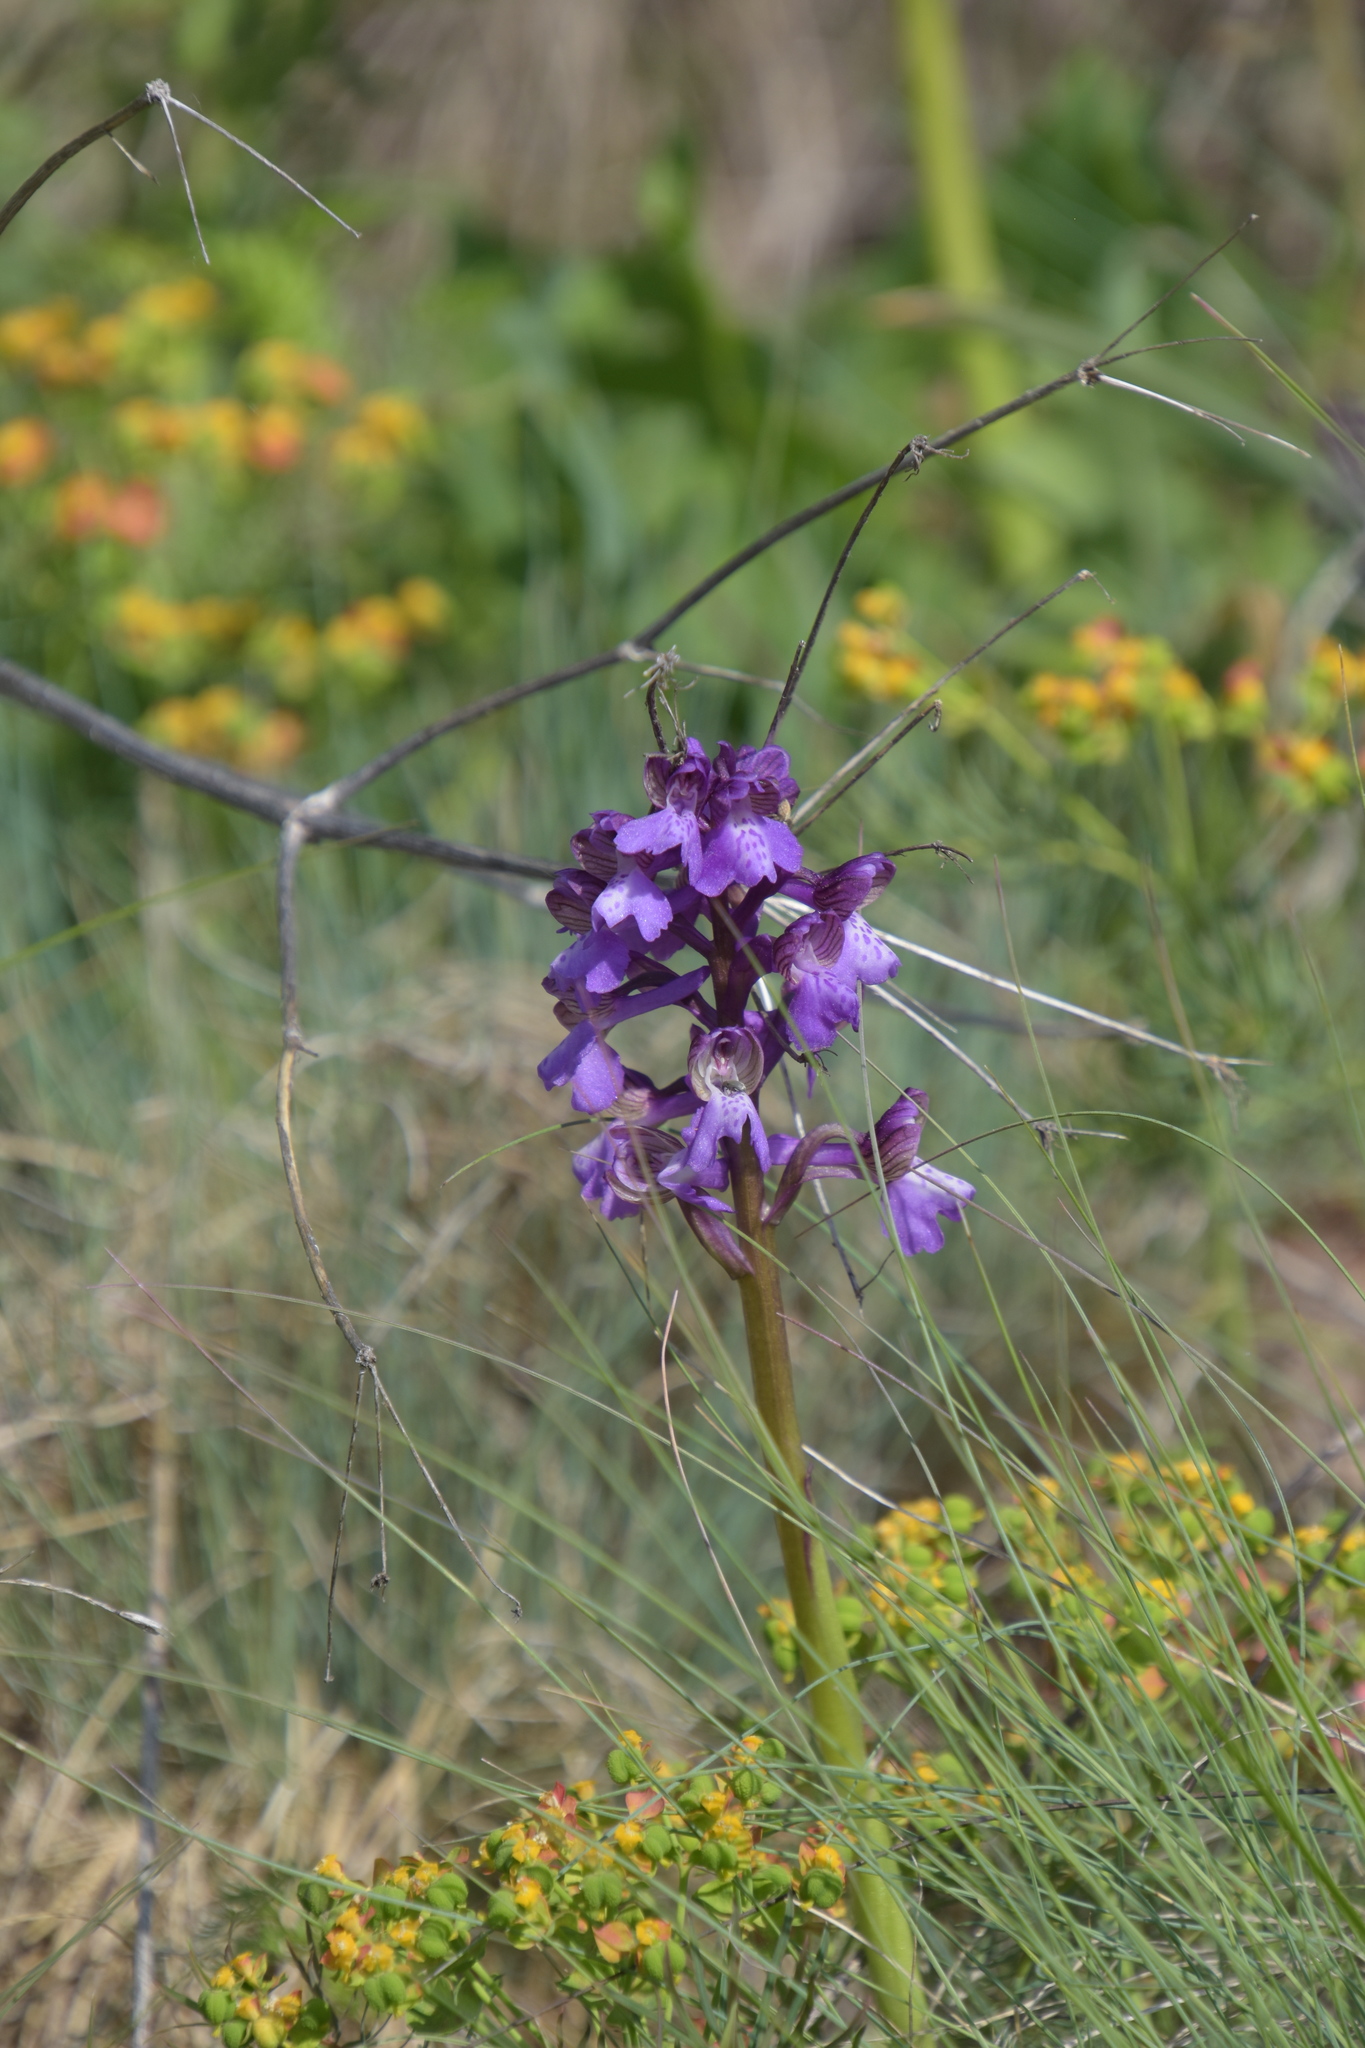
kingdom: Plantae
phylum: Tracheophyta
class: Liliopsida
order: Asparagales
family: Orchidaceae
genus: Anacamptis
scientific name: Anacamptis morio
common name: Green-winged orchid
